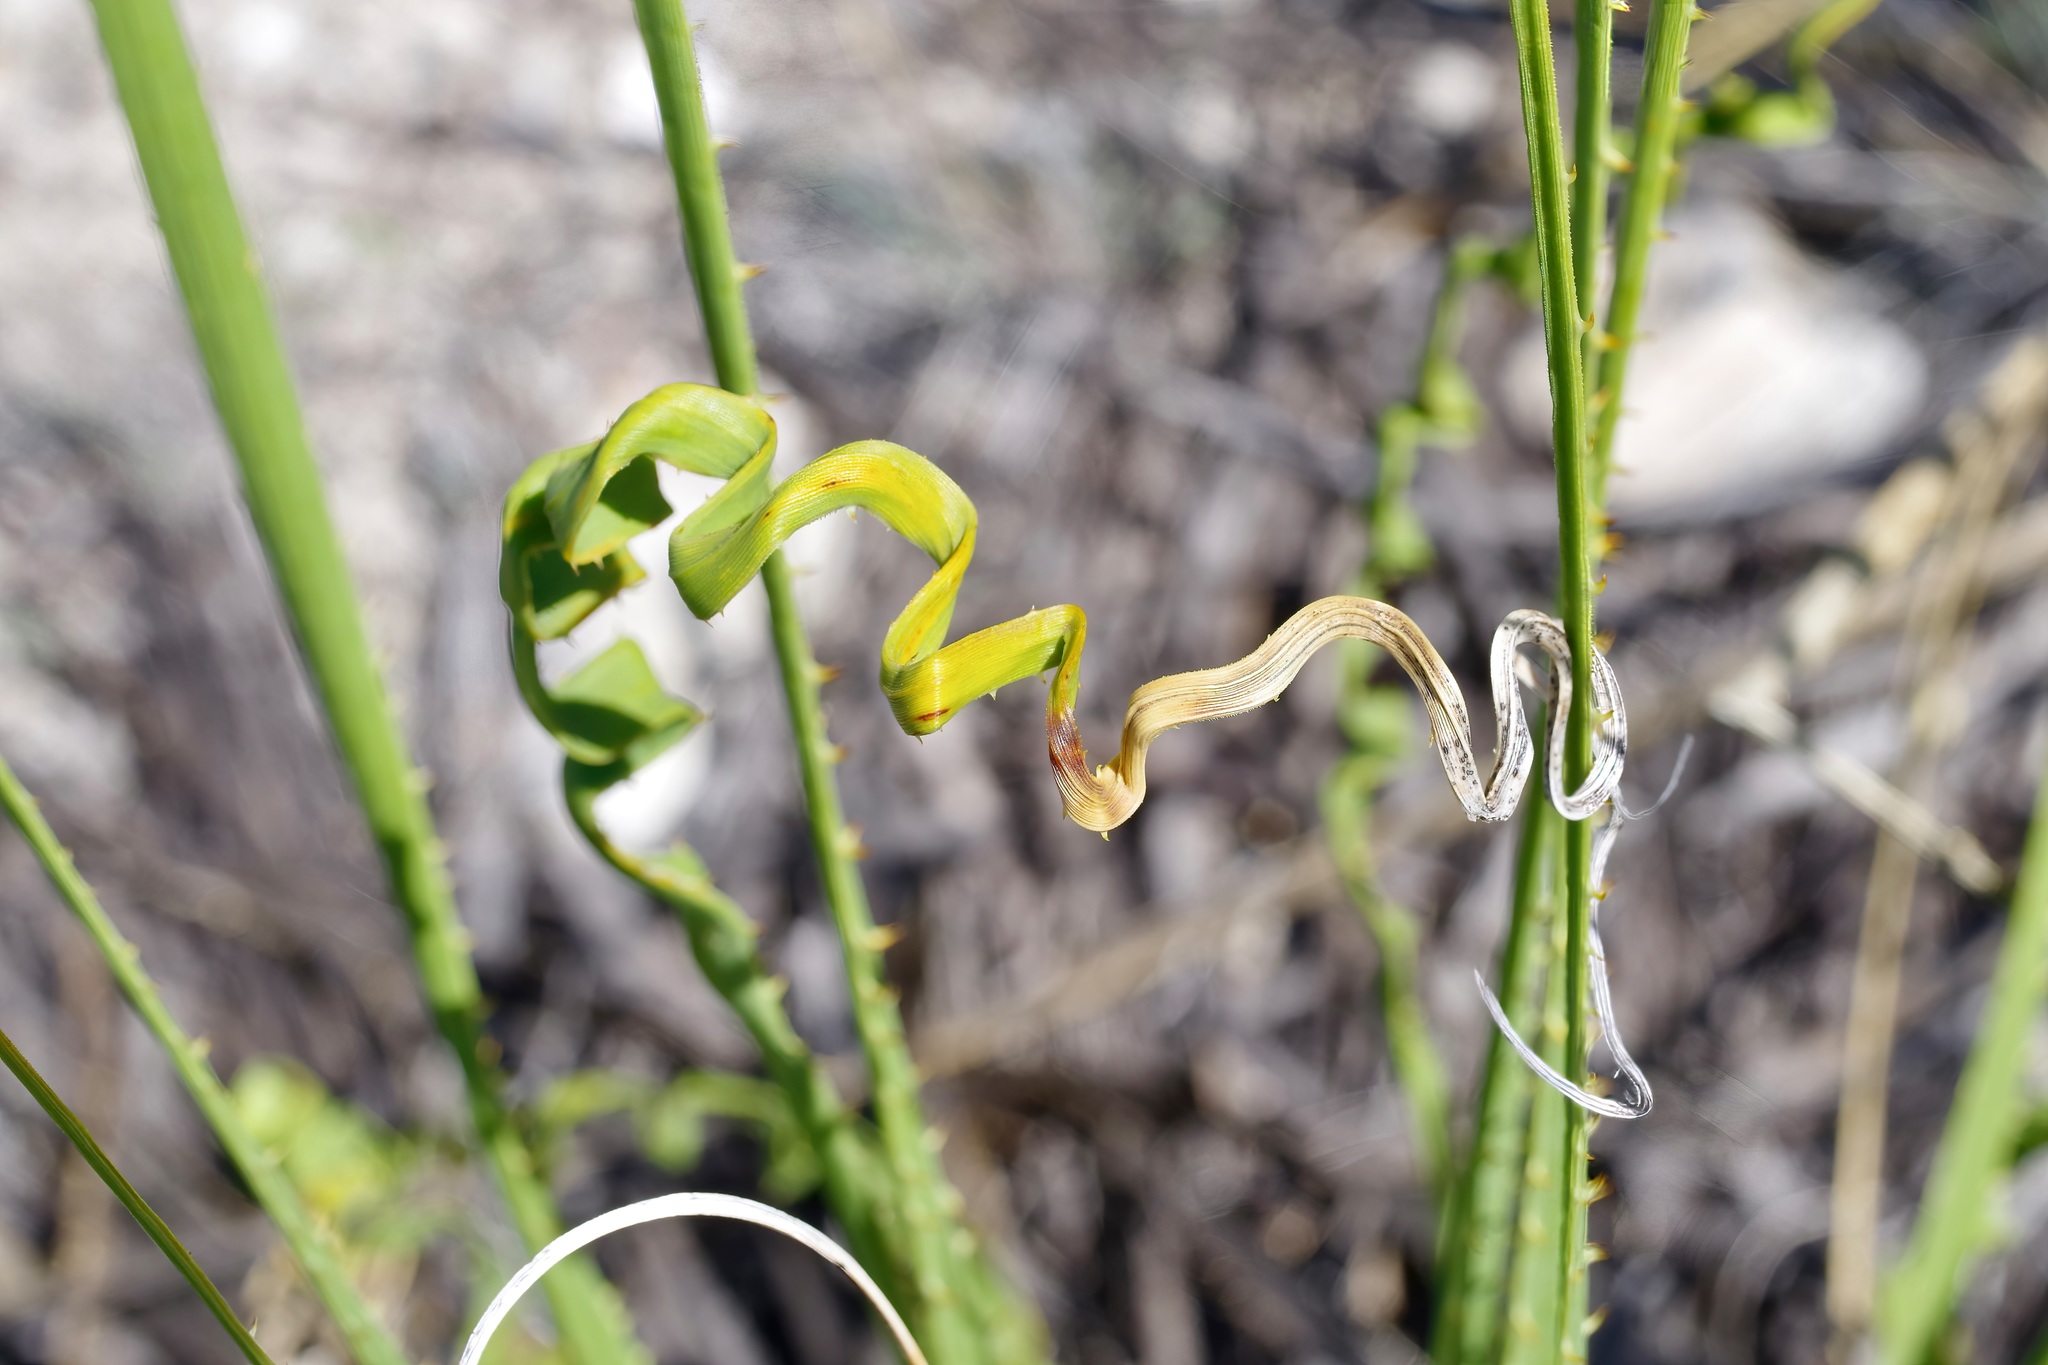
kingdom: Plantae
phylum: Tracheophyta
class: Liliopsida
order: Asparagales
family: Asparagaceae
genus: Dasylirion
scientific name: Dasylirion texanum
